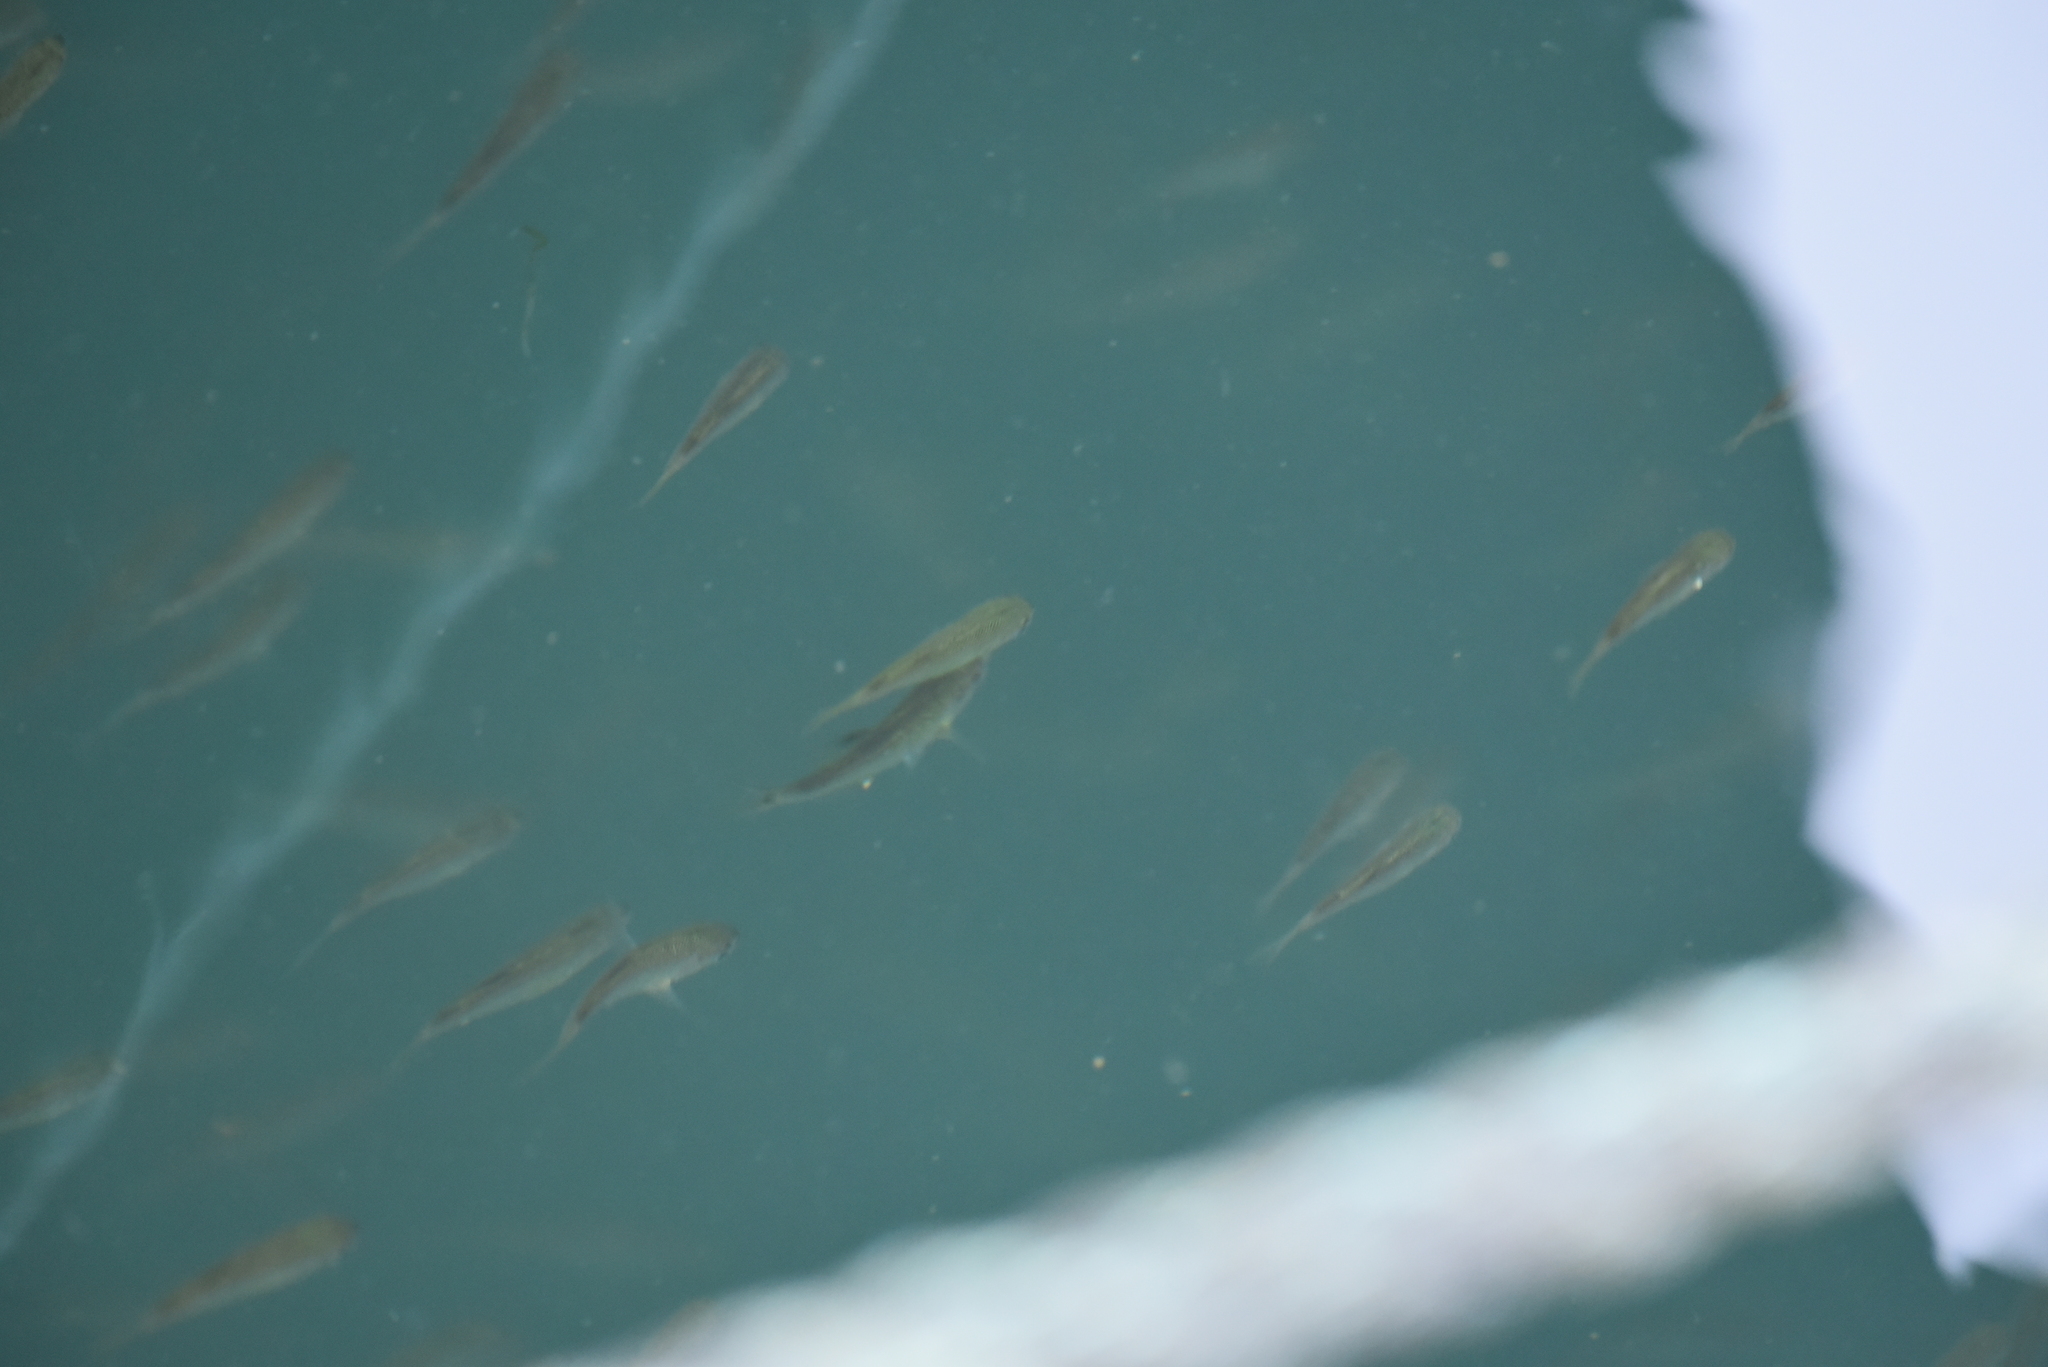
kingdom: Animalia
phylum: Chordata
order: Perciformes
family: Embiotocidae
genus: Cymatogaster
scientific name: Cymatogaster aggregata
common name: Shiner perch
